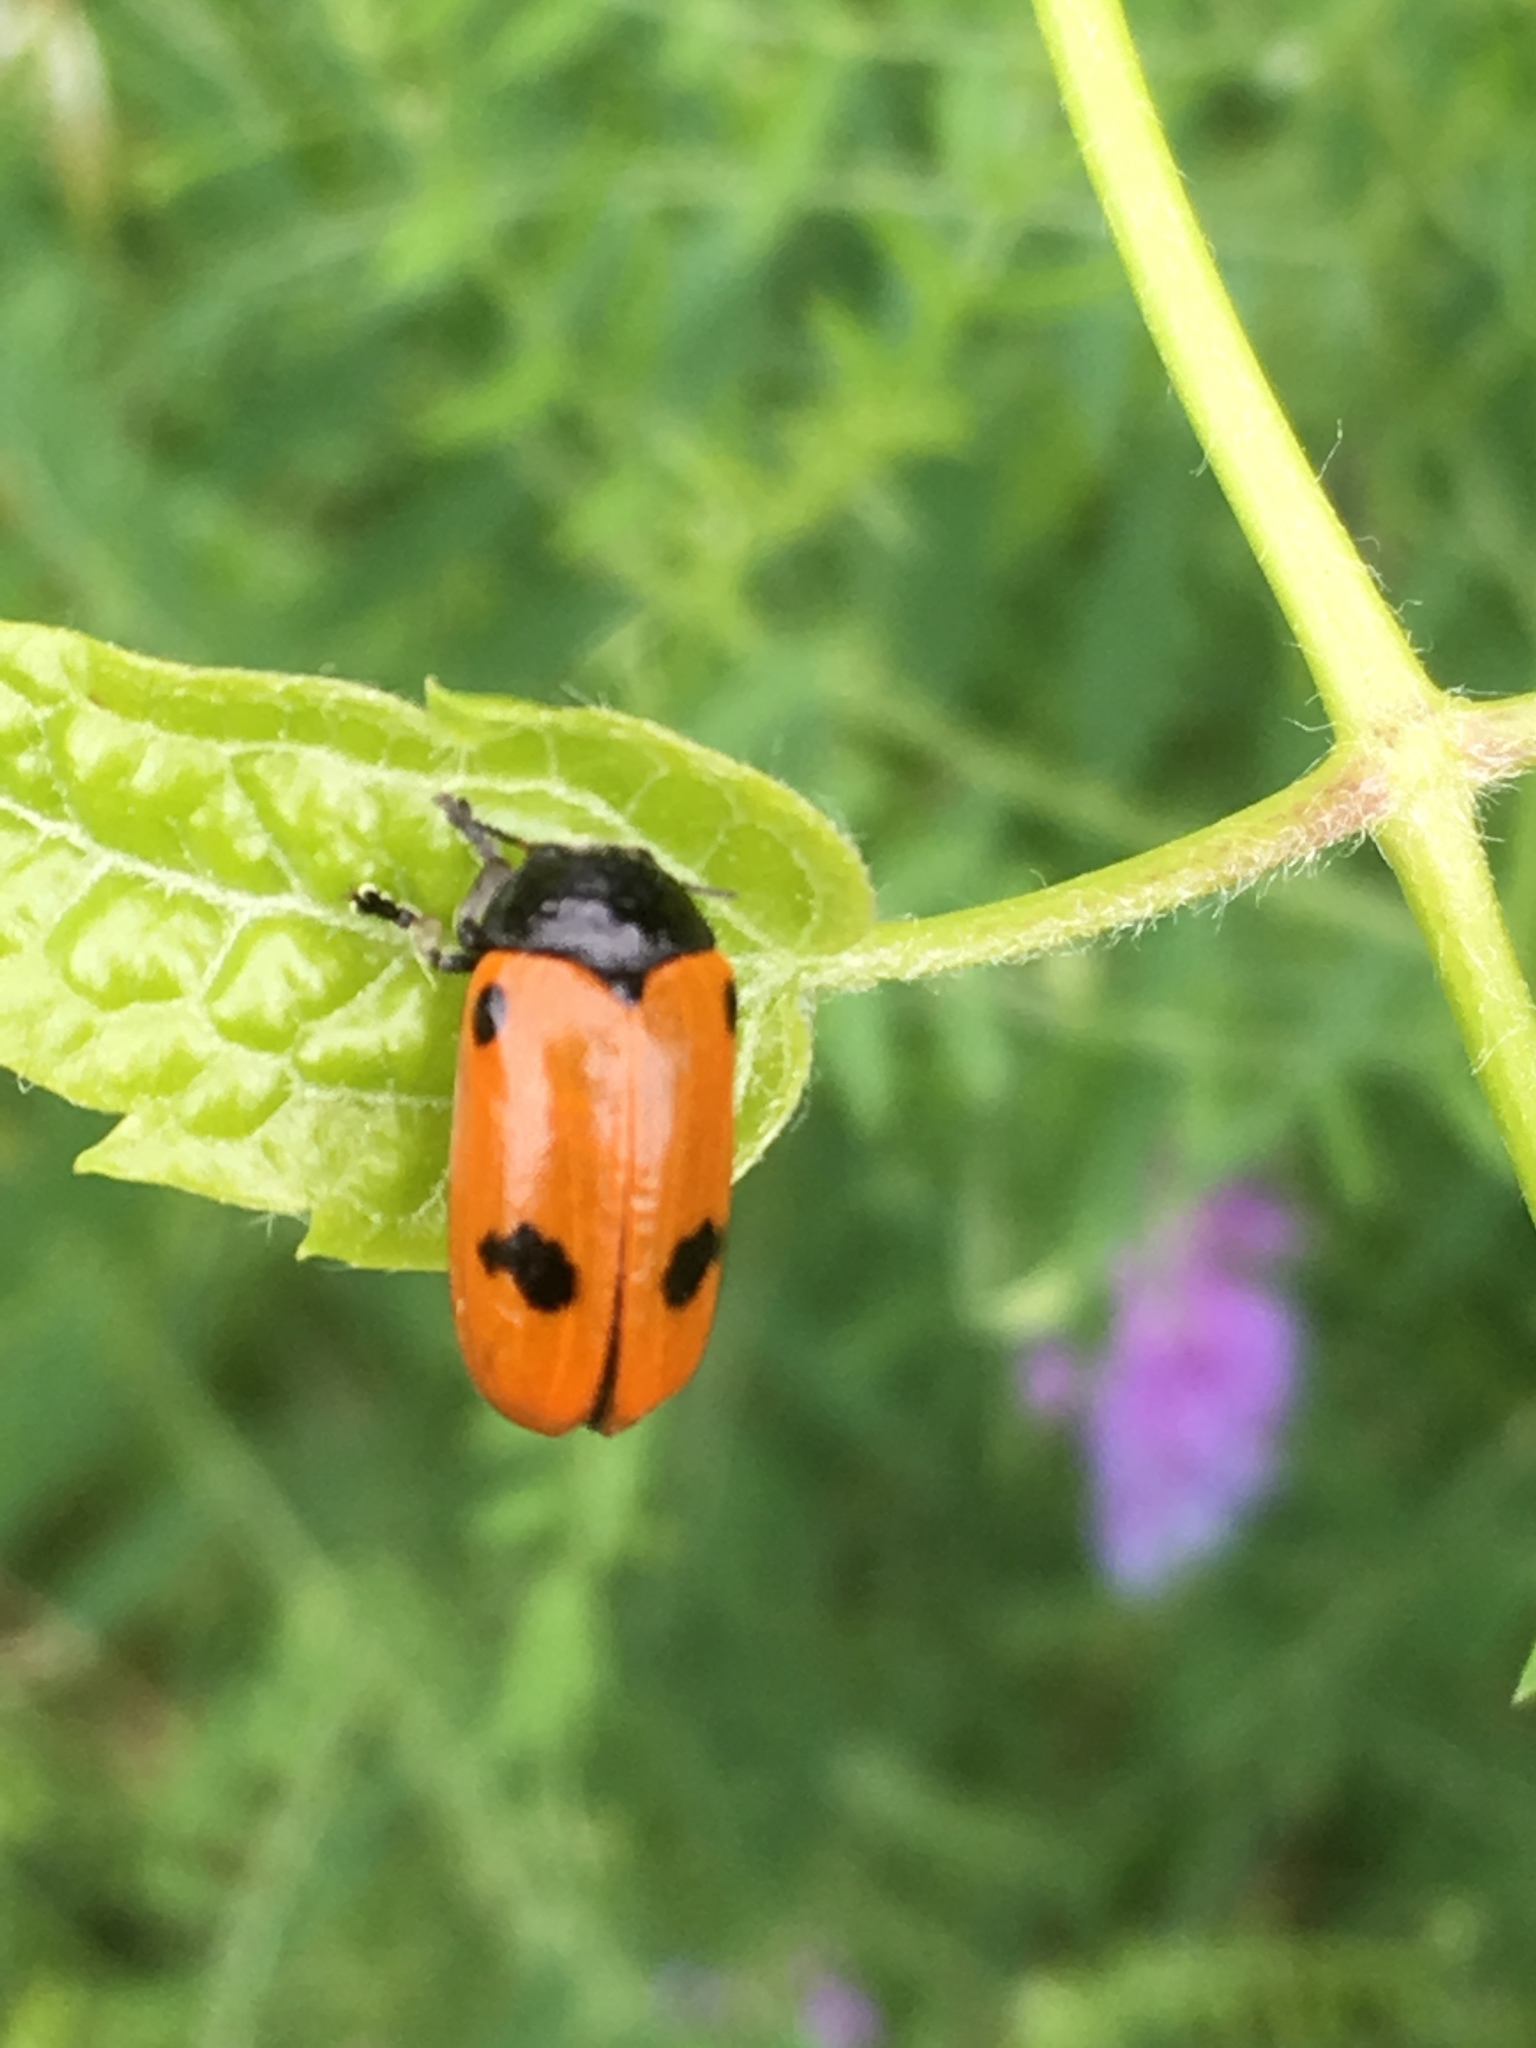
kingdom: Animalia
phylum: Arthropoda
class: Insecta
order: Coleoptera
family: Chrysomelidae
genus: Clytra
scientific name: Clytra quadripunctata
